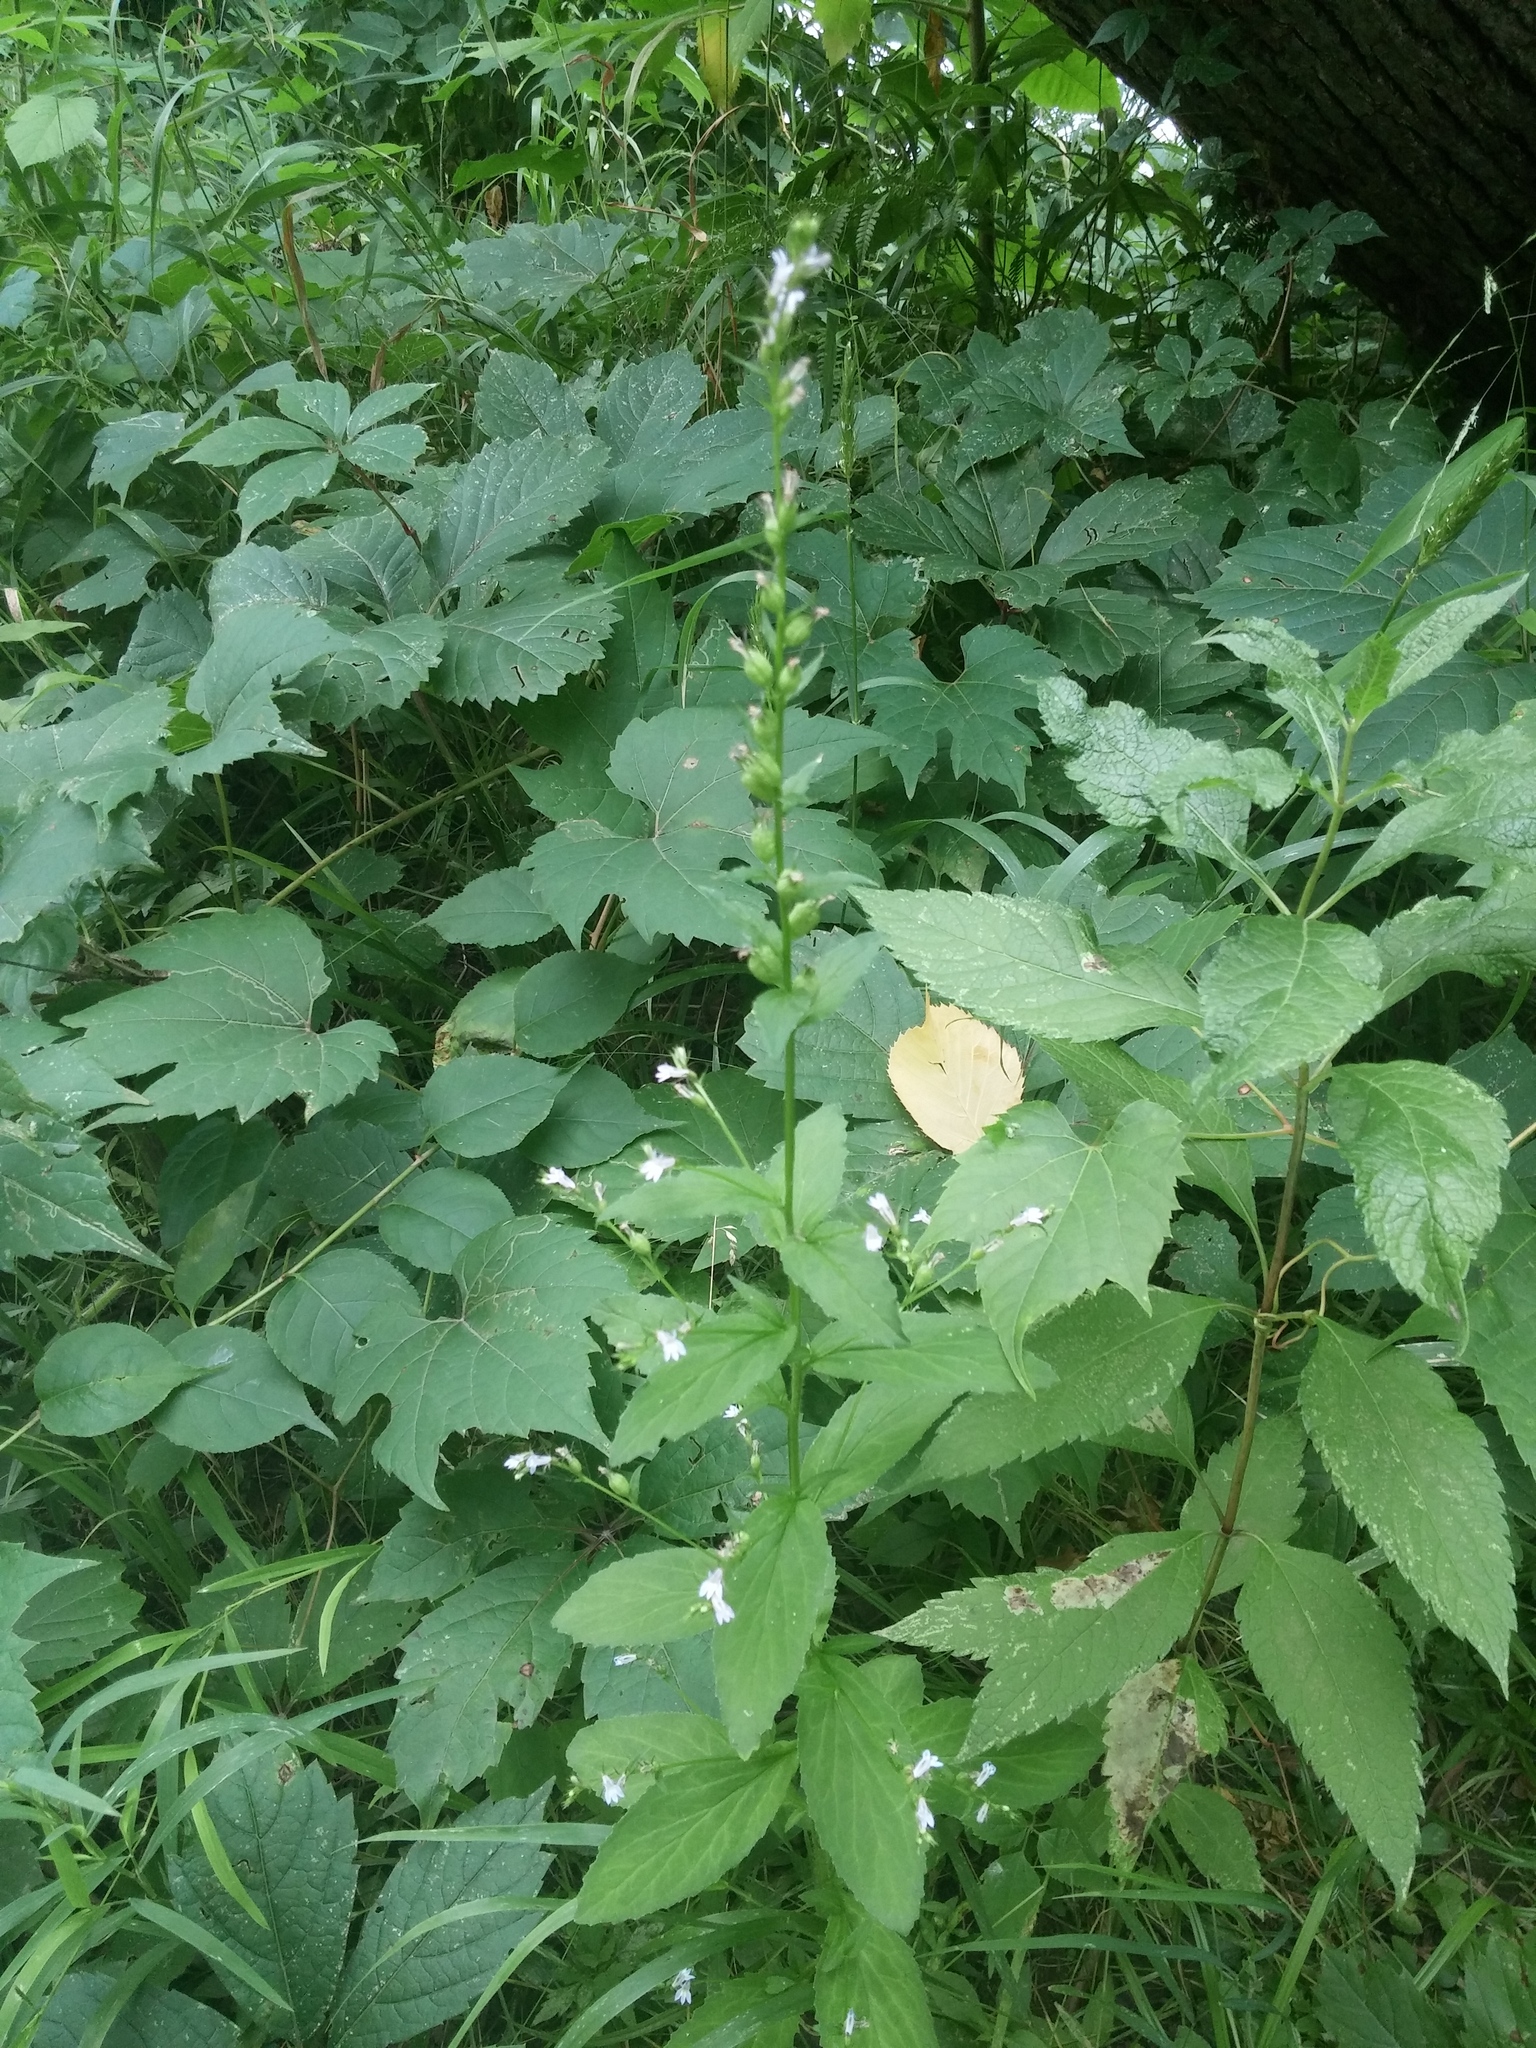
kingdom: Plantae
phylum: Tracheophyta
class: Magnoliopsida
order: Asterales
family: Campanulaceae
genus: Lobelia
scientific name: Lobelia inflata
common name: Indian tobacco
